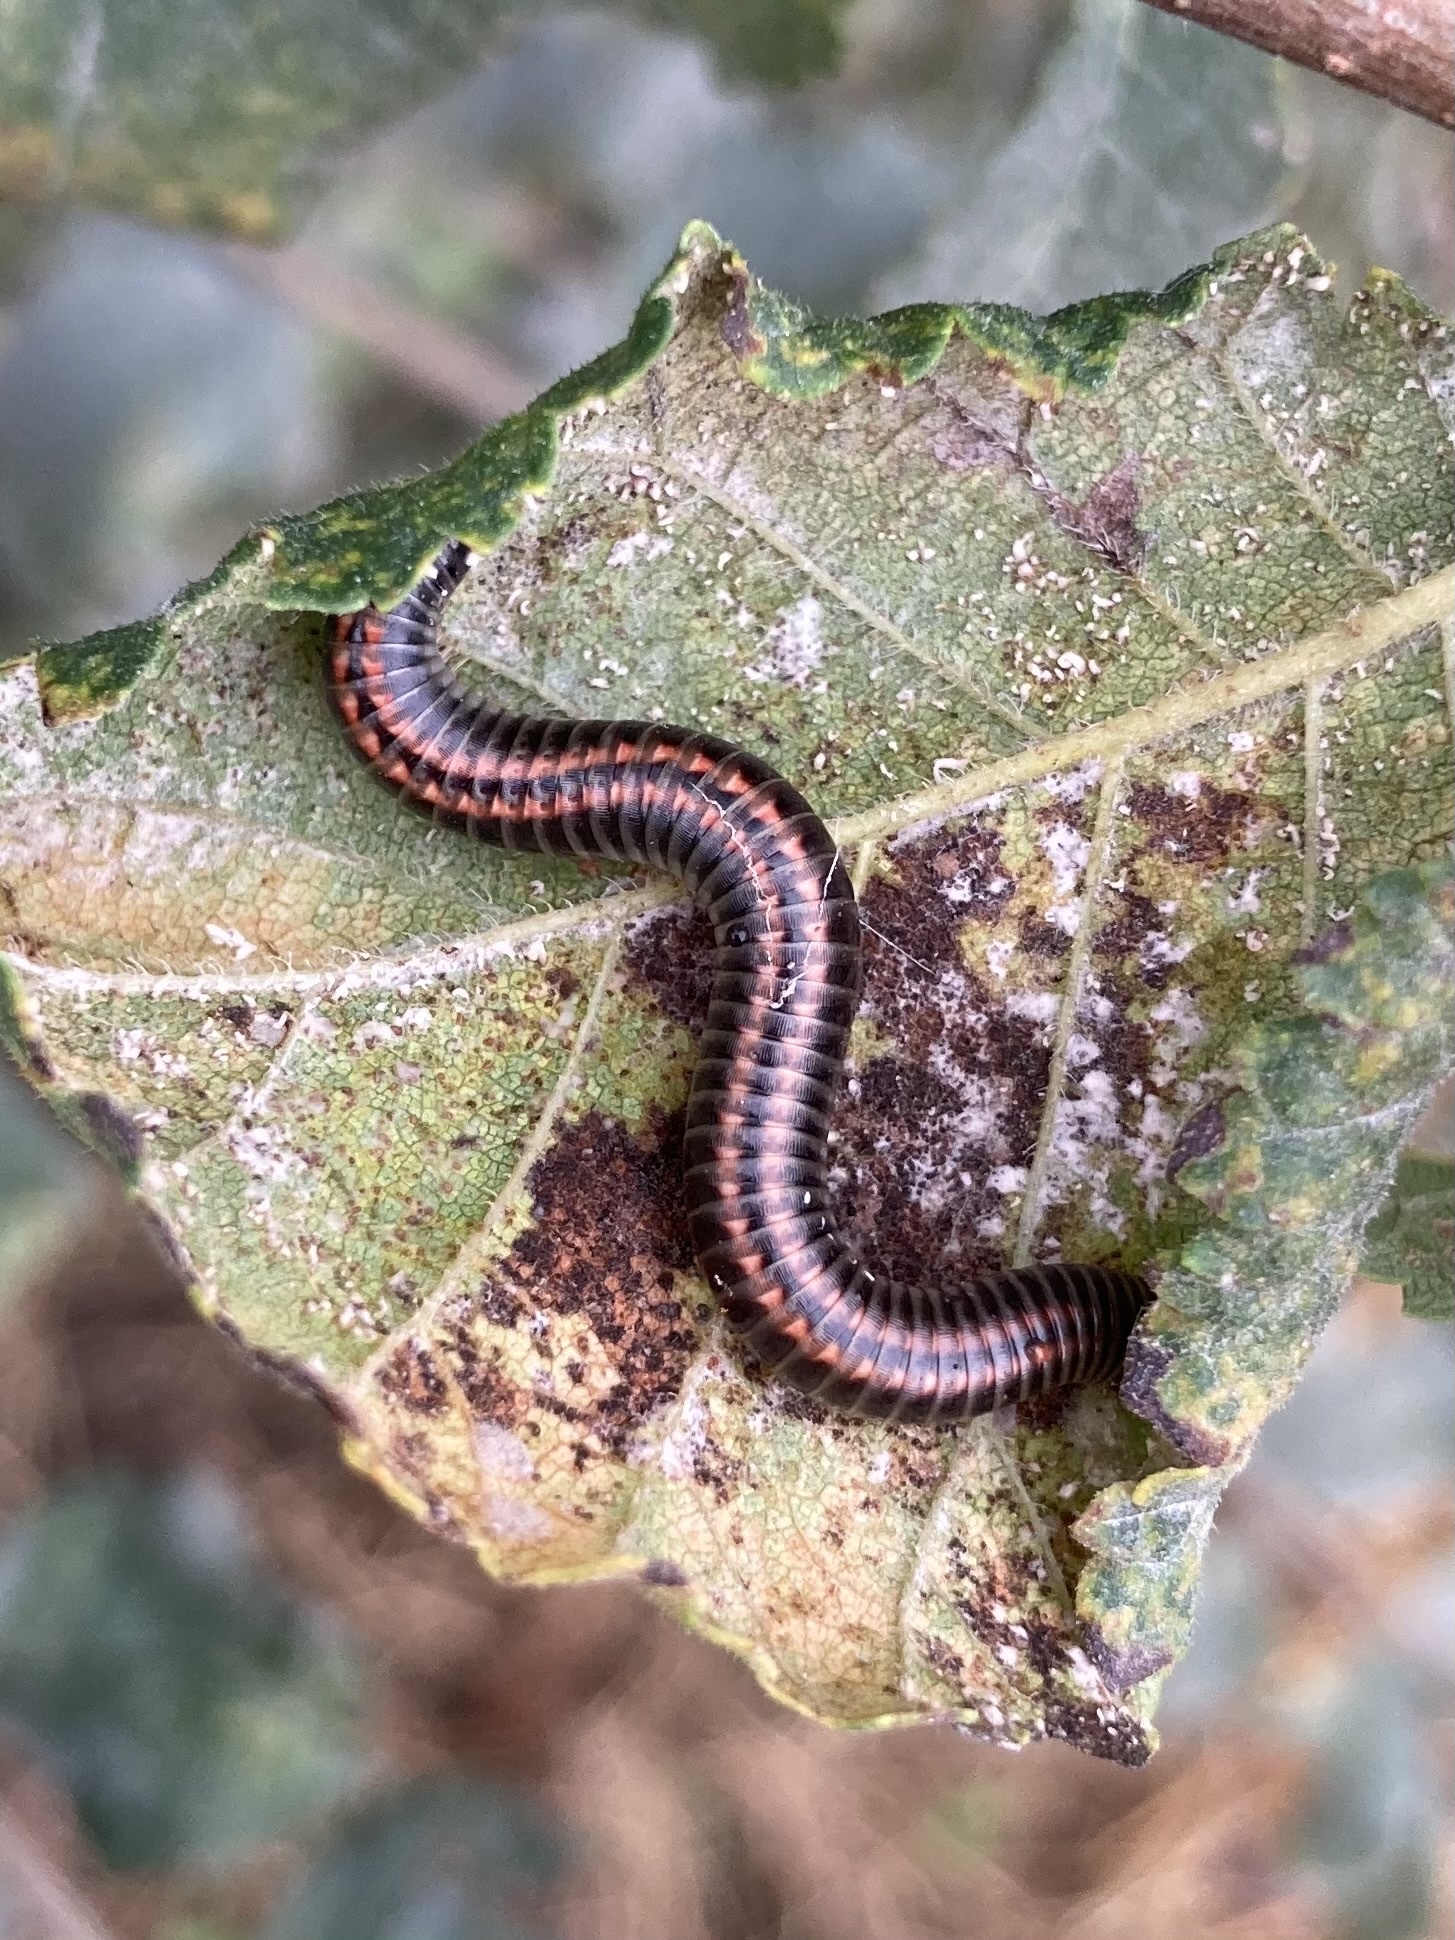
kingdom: Animalia
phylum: Arthropoda
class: Diplopoda
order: Julida
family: Julidae
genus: Ommatoiulus
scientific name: Ommatoiulus sabulosus
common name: Striped millipede
